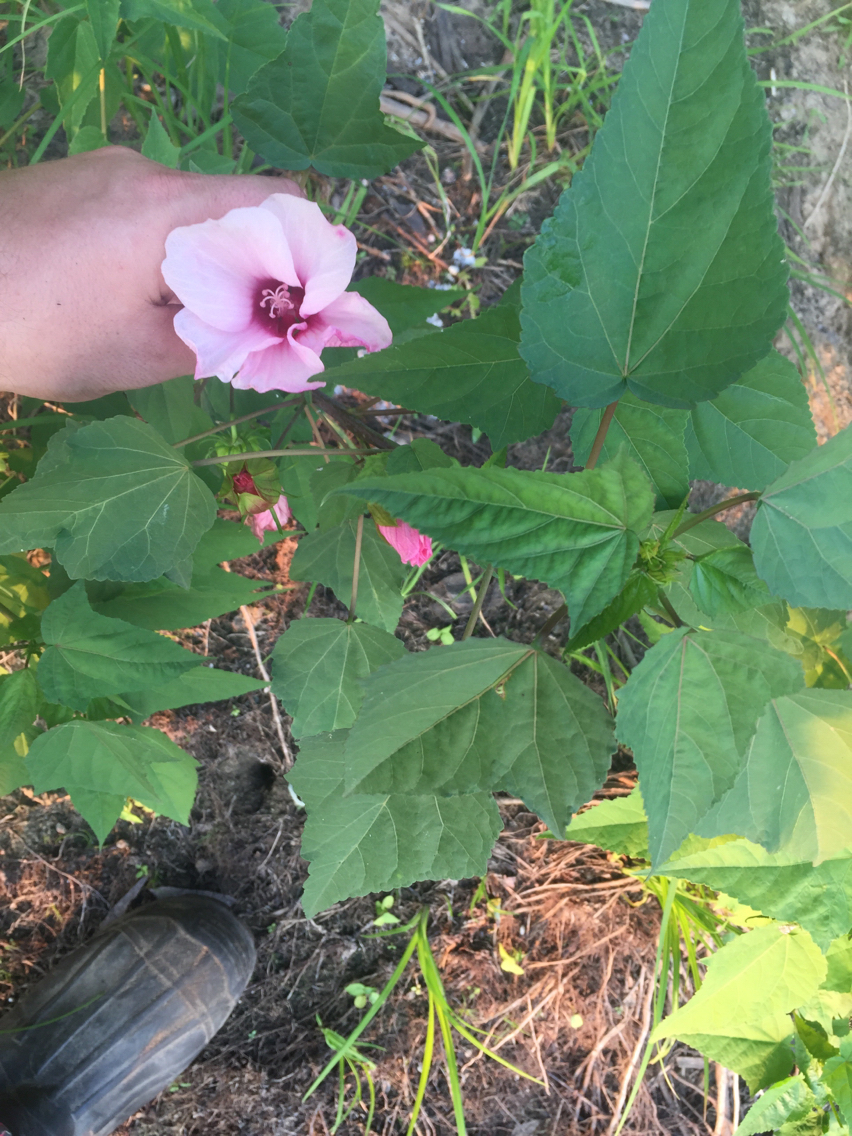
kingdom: Plantae
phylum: Tracheophyta
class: Magnoliopsida
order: Malvales
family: Malvaceae
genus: Hibiscus
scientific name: Hibiscus laevis
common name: Scarlet rose-mallow
